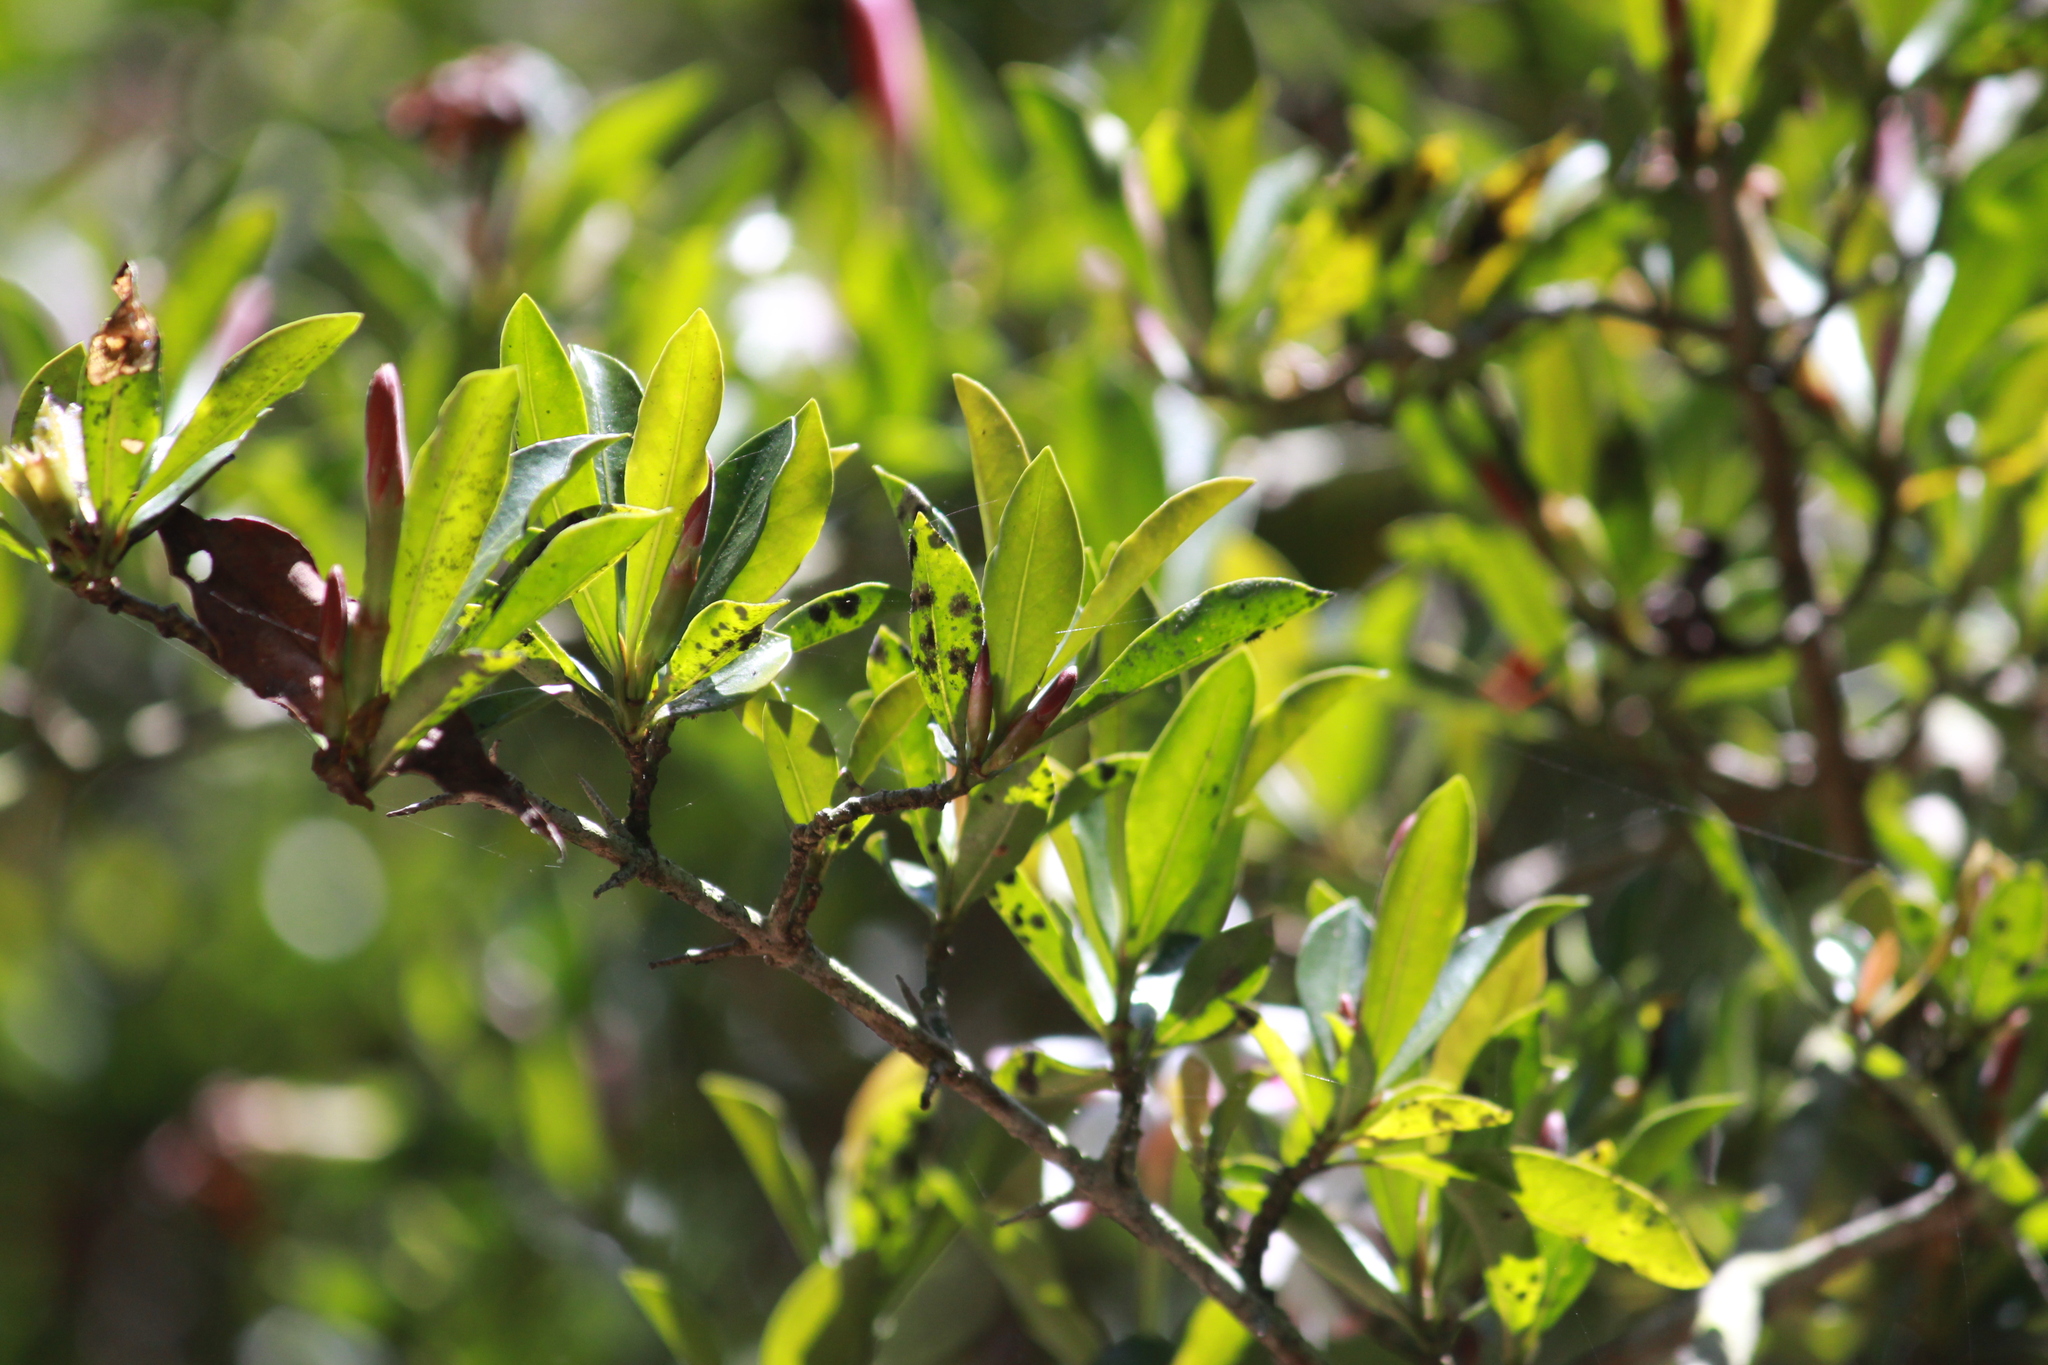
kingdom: Plantae
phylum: Tracheophyta
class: Magnoliopsida
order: Gentianales
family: Rubiaceae
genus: Hyperacanthus
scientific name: Hyperacanthus amoenus
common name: Spiny gardenia
